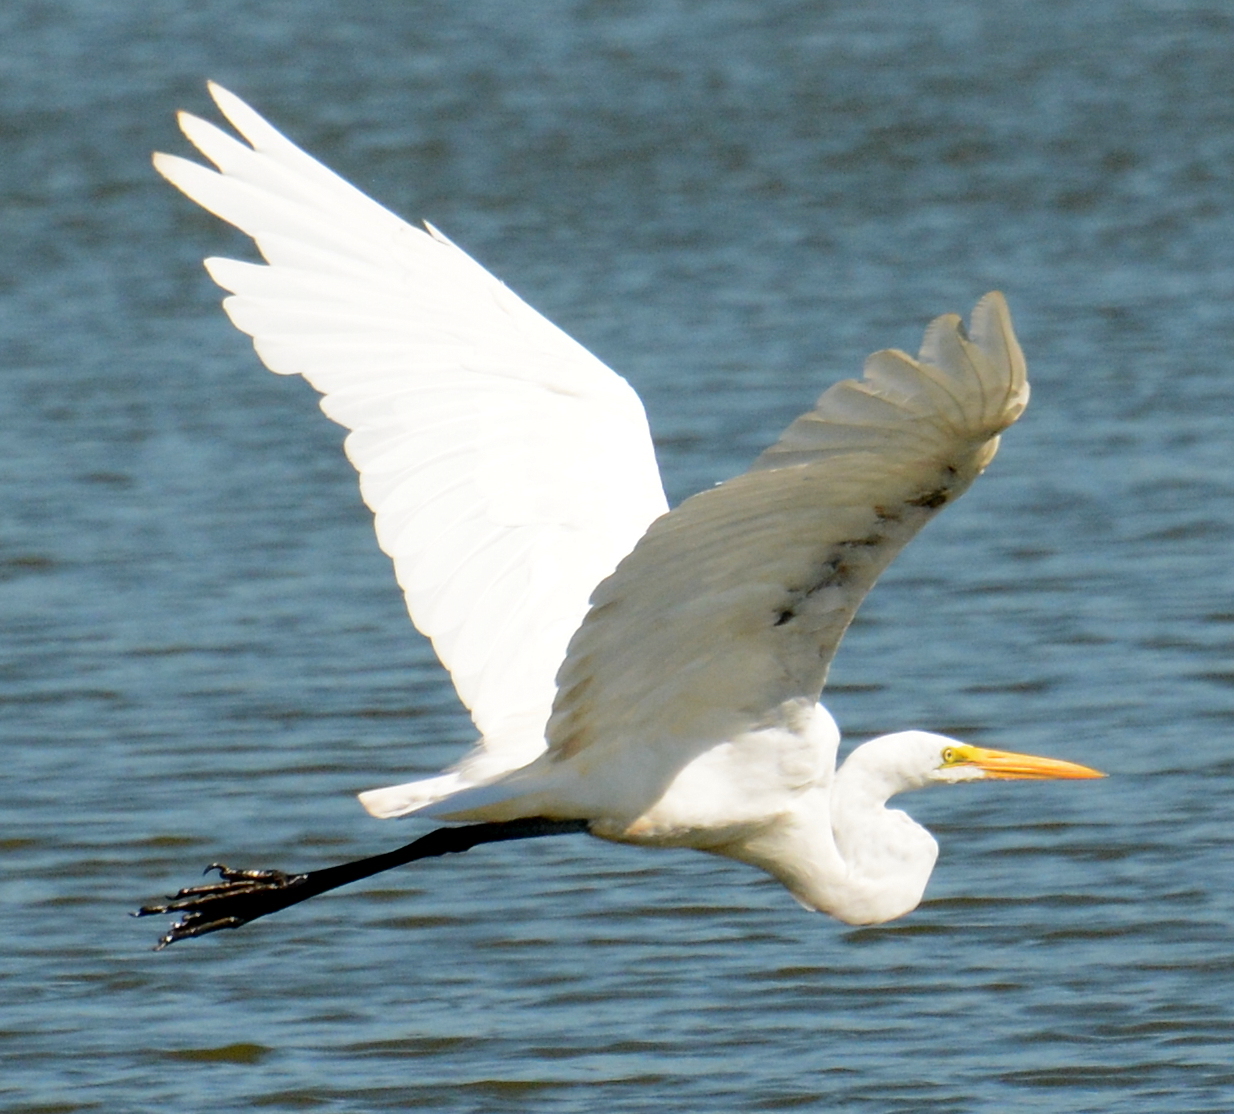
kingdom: Animalia
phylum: Chordata
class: Aves
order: Pelecaniformes
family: Ardeidae
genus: Ardea
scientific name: Ardea alba
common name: Great egret
